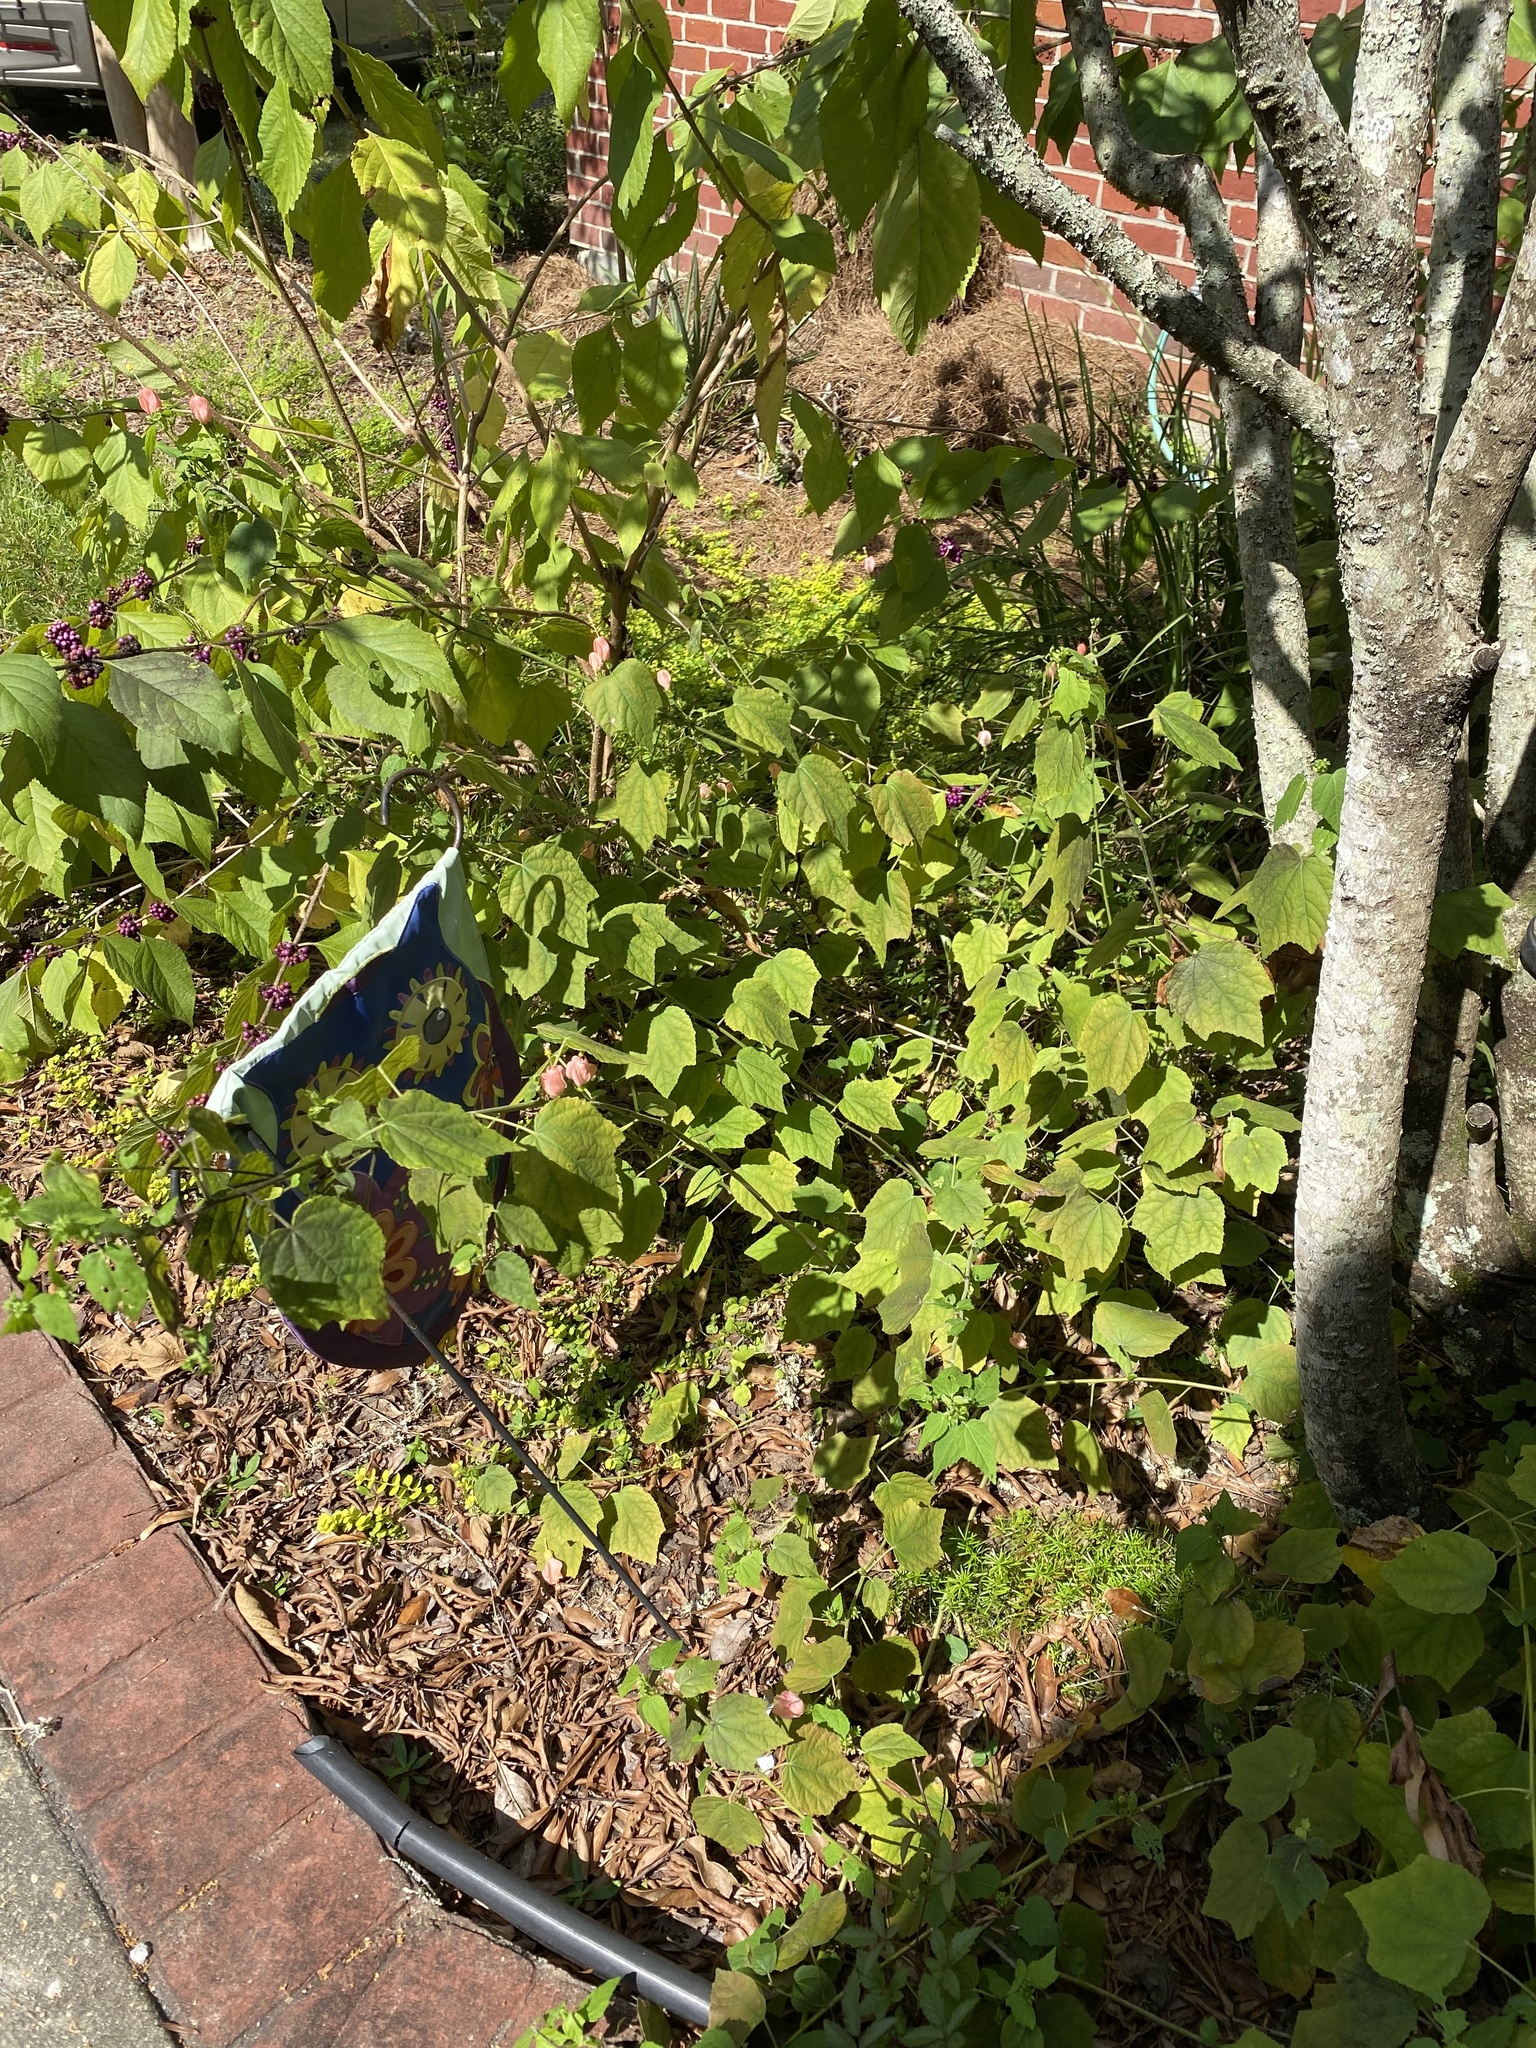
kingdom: Plantae
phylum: Tracheophyta
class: Magnoliopsida
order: Malvales
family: Malvaceae
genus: Malvaviscus
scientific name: Malvaviscus arboreus
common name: Wax mallow
